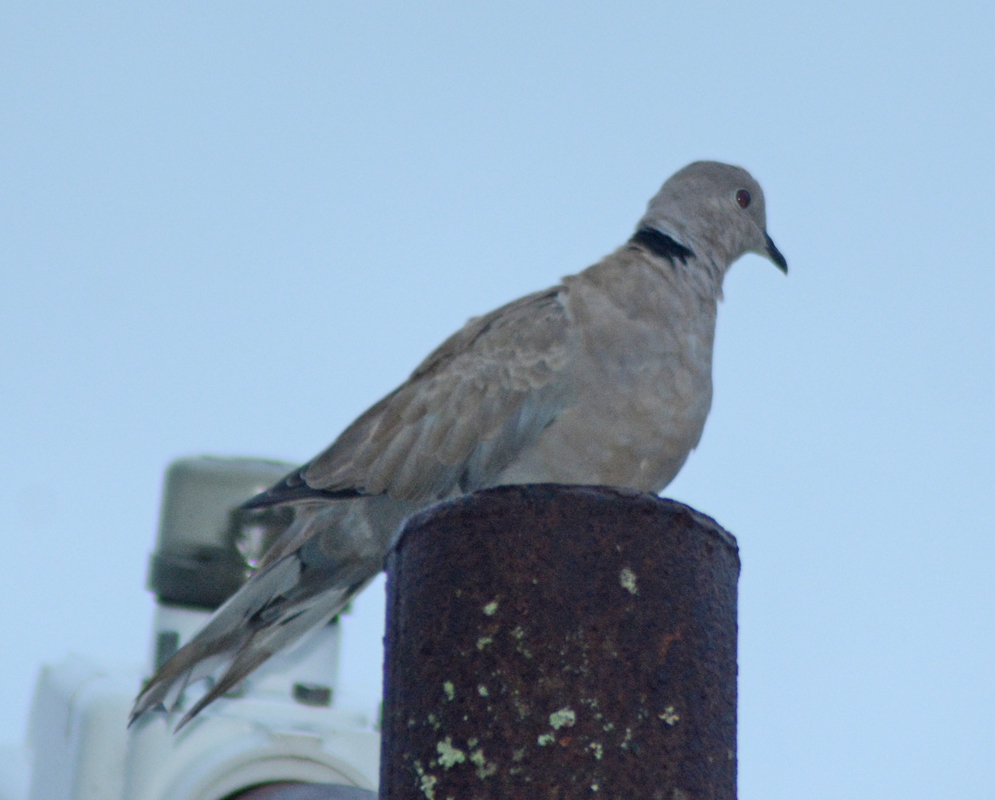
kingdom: Animalia
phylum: Chordata
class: Aves
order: Columbiformes
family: Columbidae
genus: Streptopelia
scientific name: Streptopelia decaocto
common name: Eurasian collared dove
